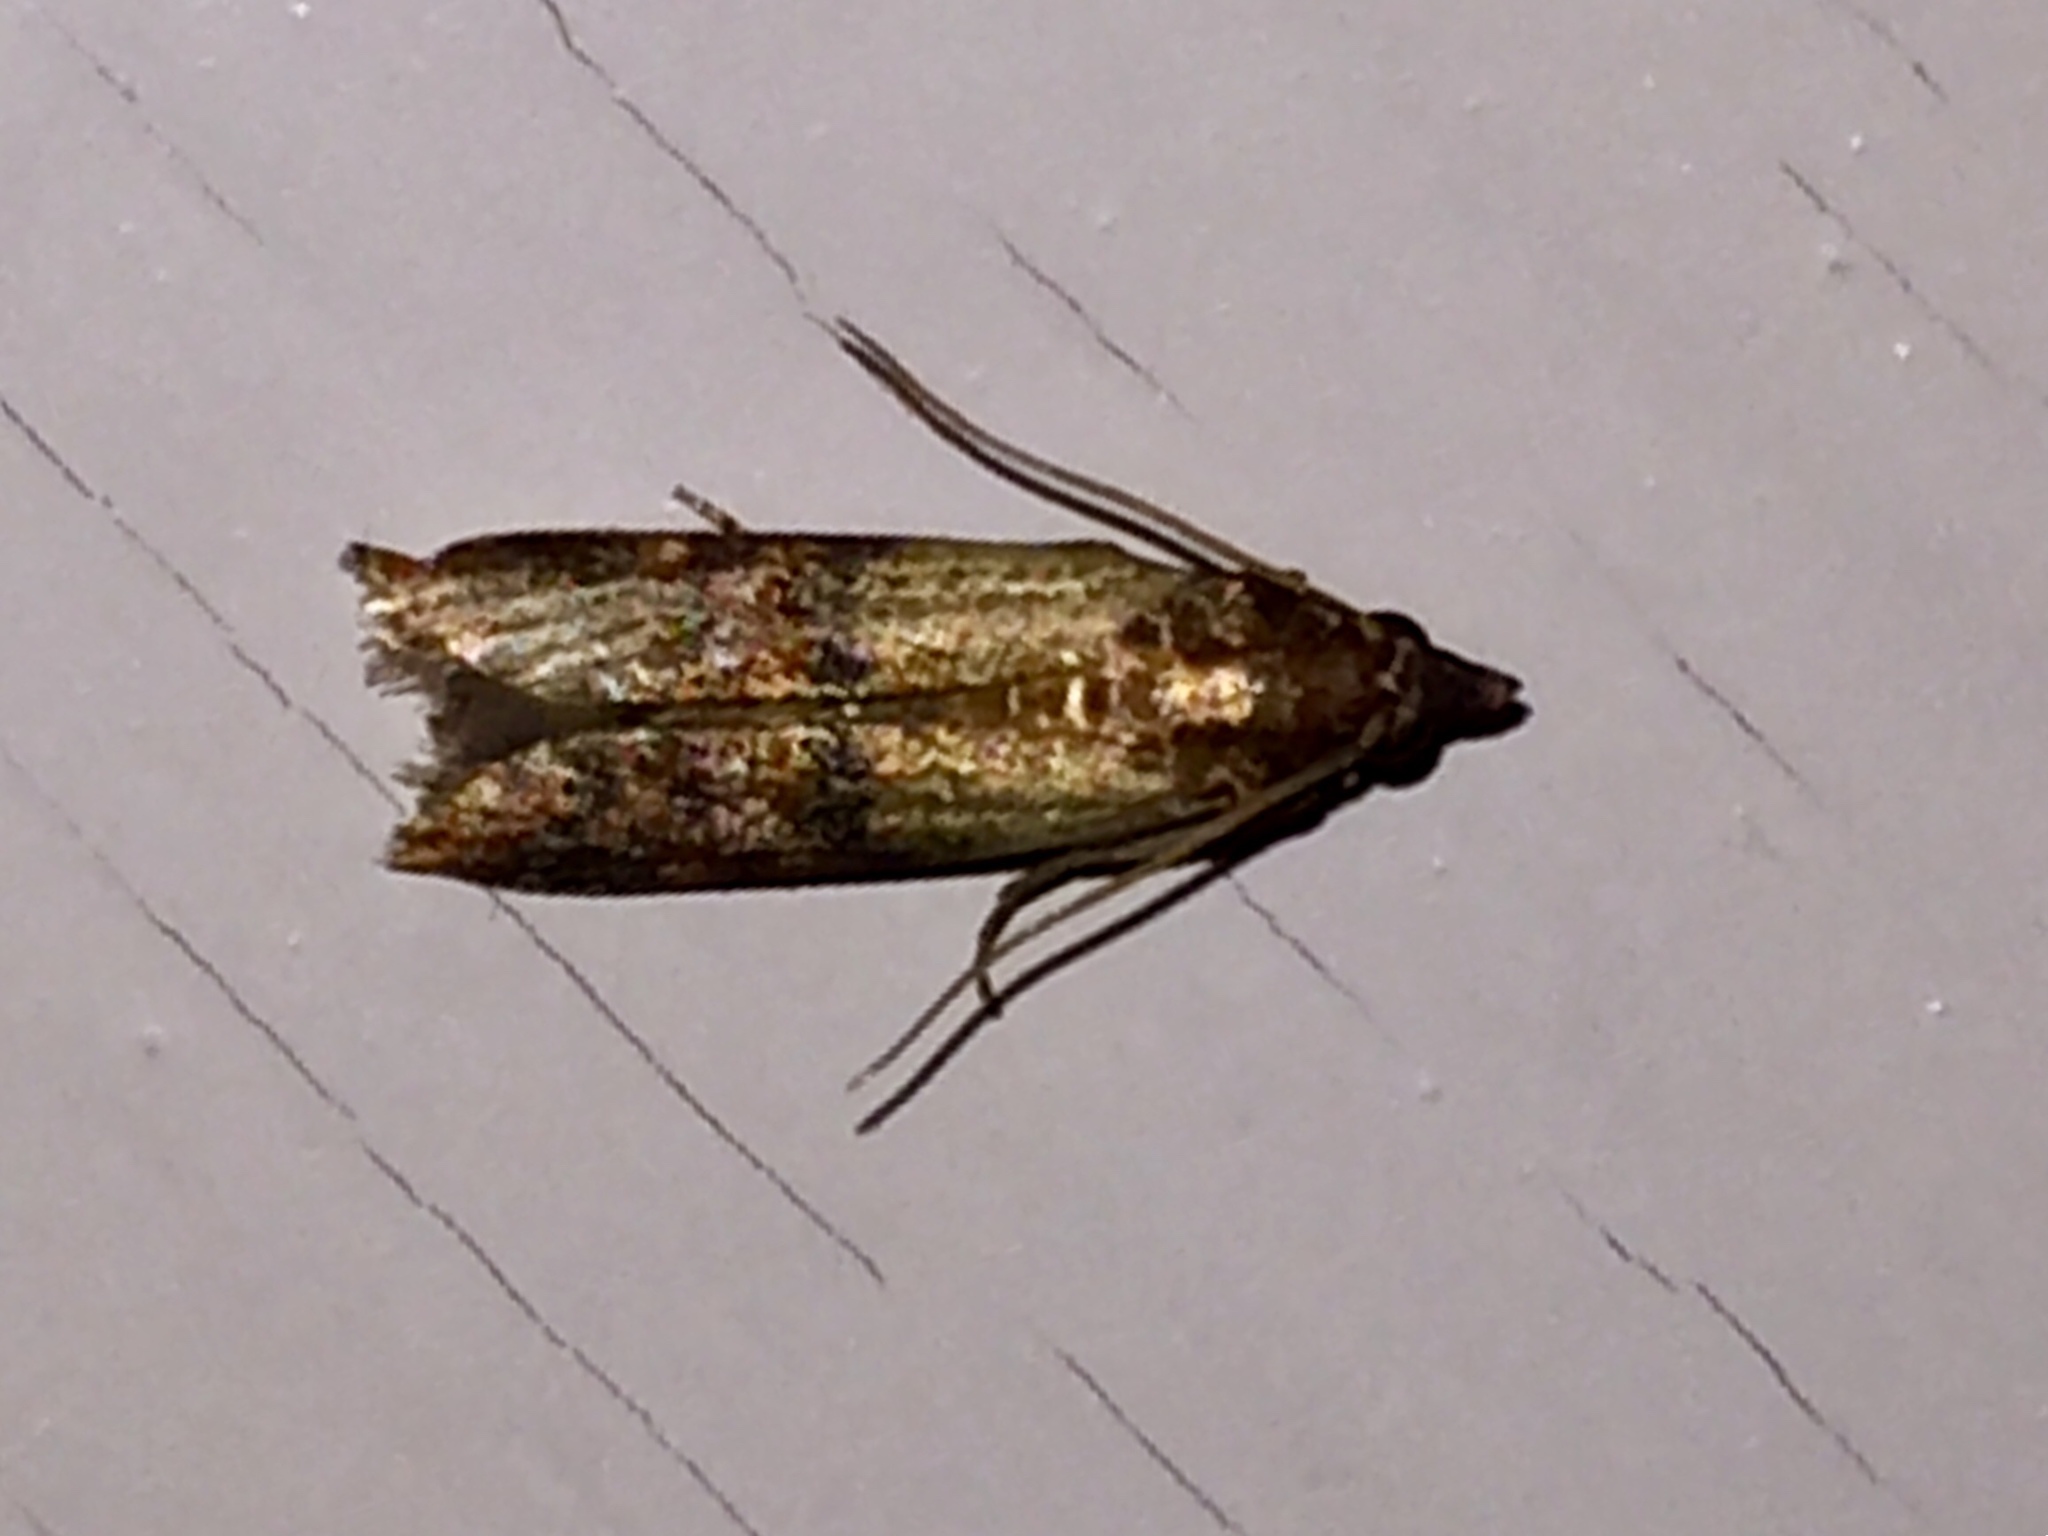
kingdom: Animalia
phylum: Arthropoda
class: Insecta
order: Lepidoptera
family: Pyralidae
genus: Plodia
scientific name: Plodia interpunctella
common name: Indian meal moth
